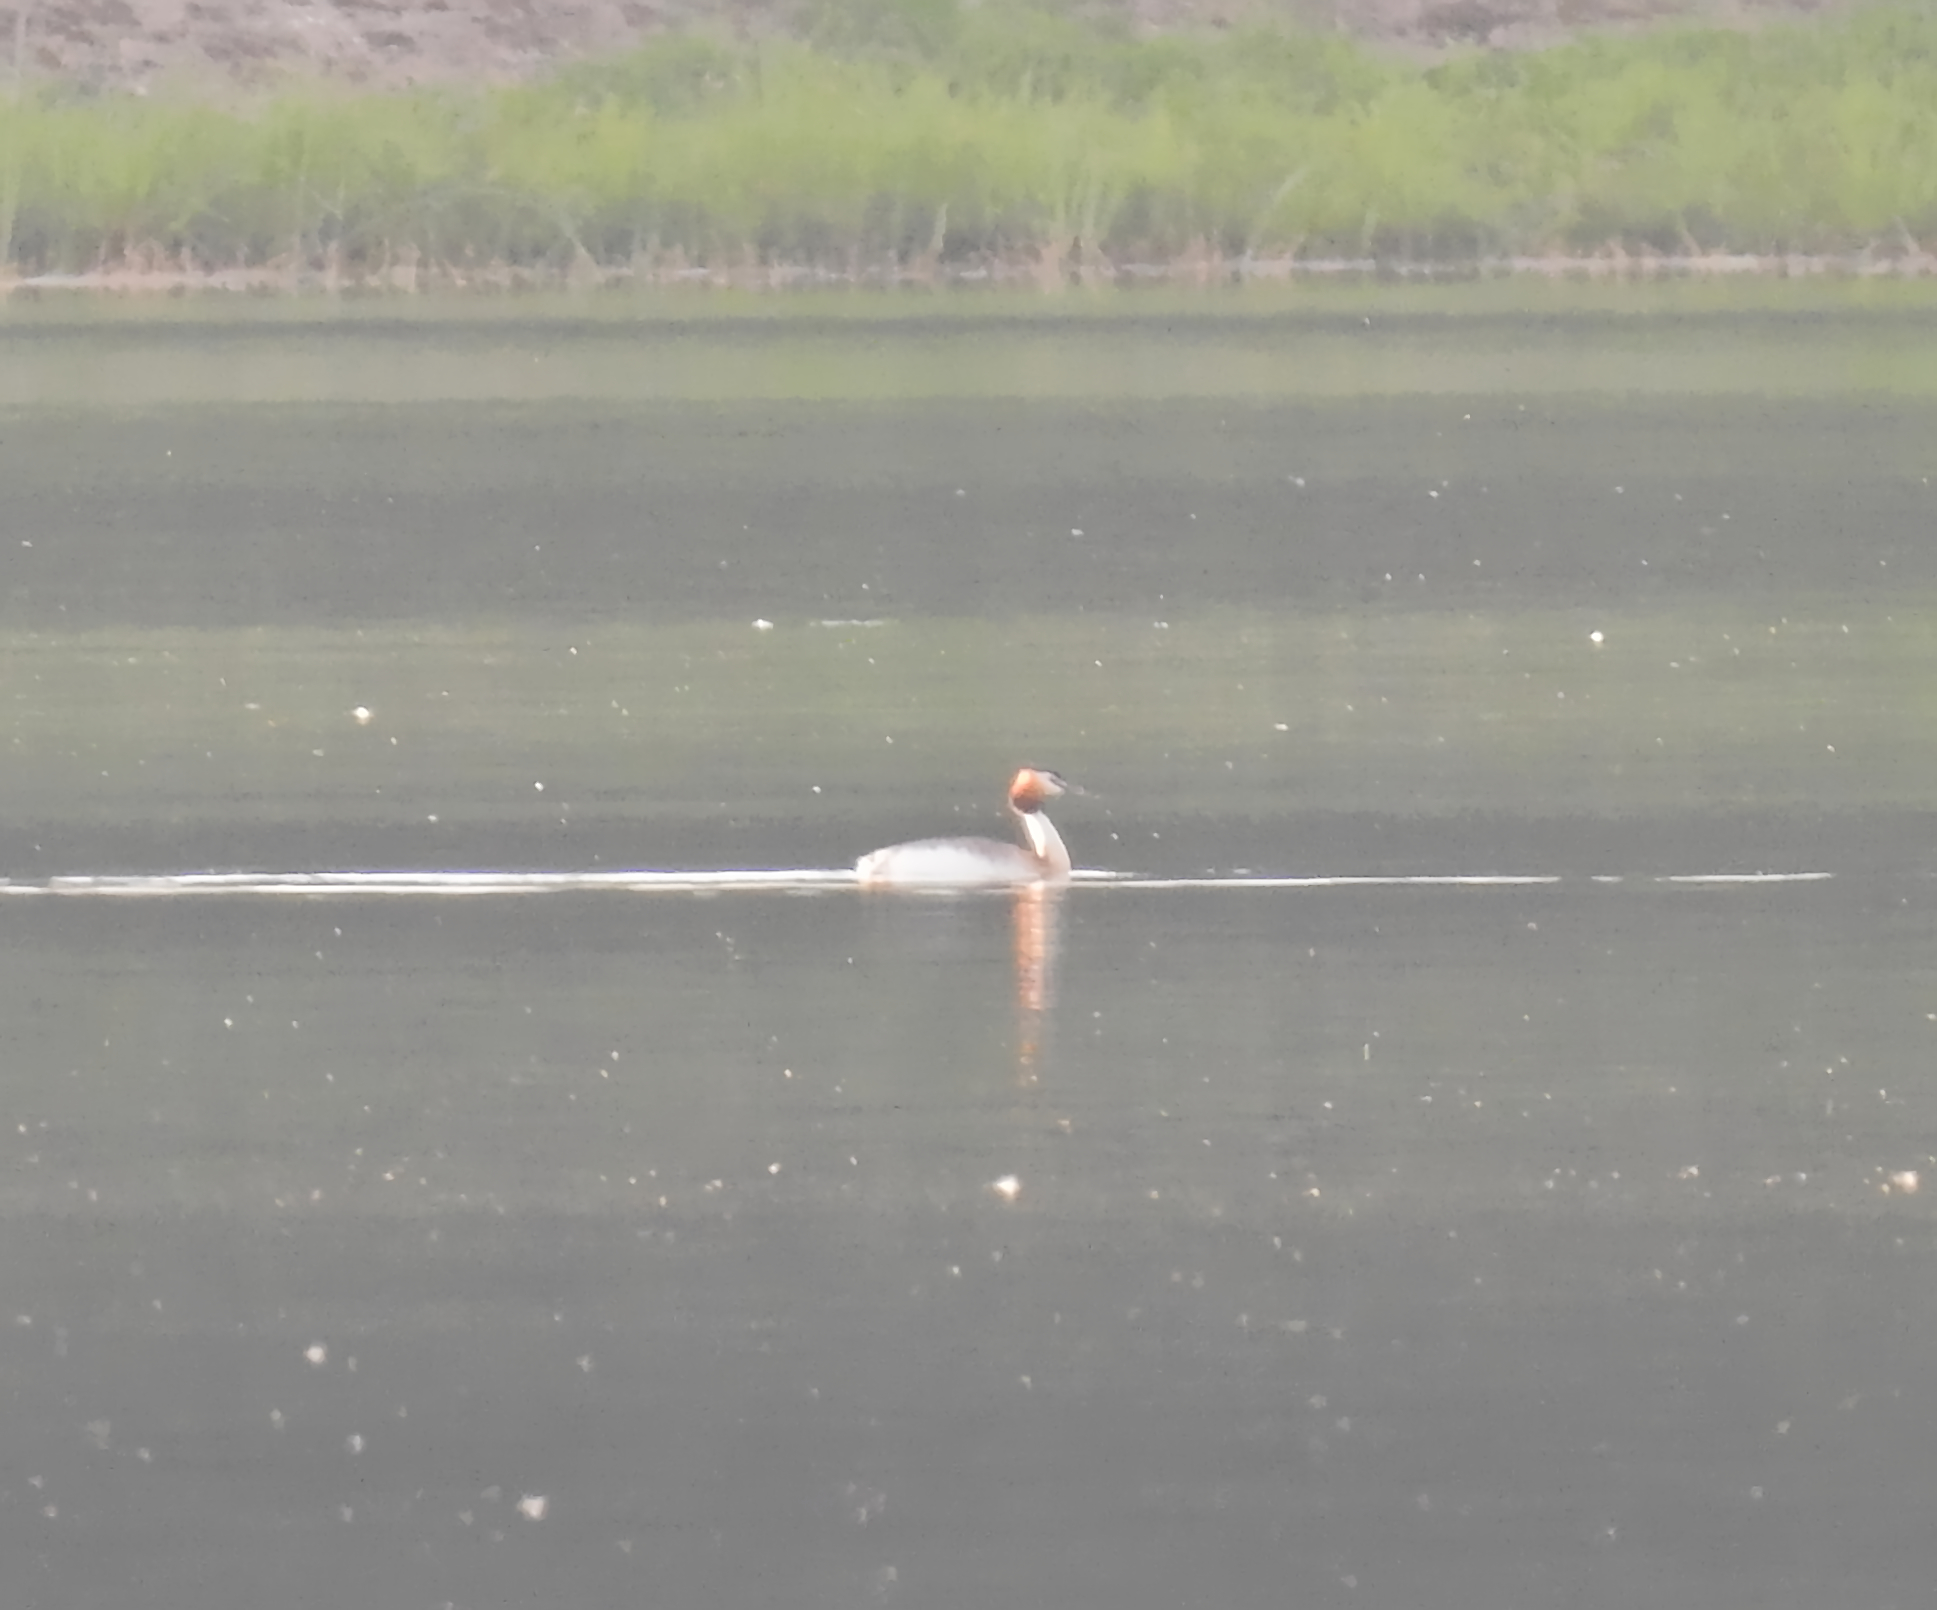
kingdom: Animalia
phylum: Chordata
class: Aves
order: Podicipediformes
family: Podicipedidae
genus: Podiceps
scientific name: Podiceps cristatus
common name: Great crested grebe
